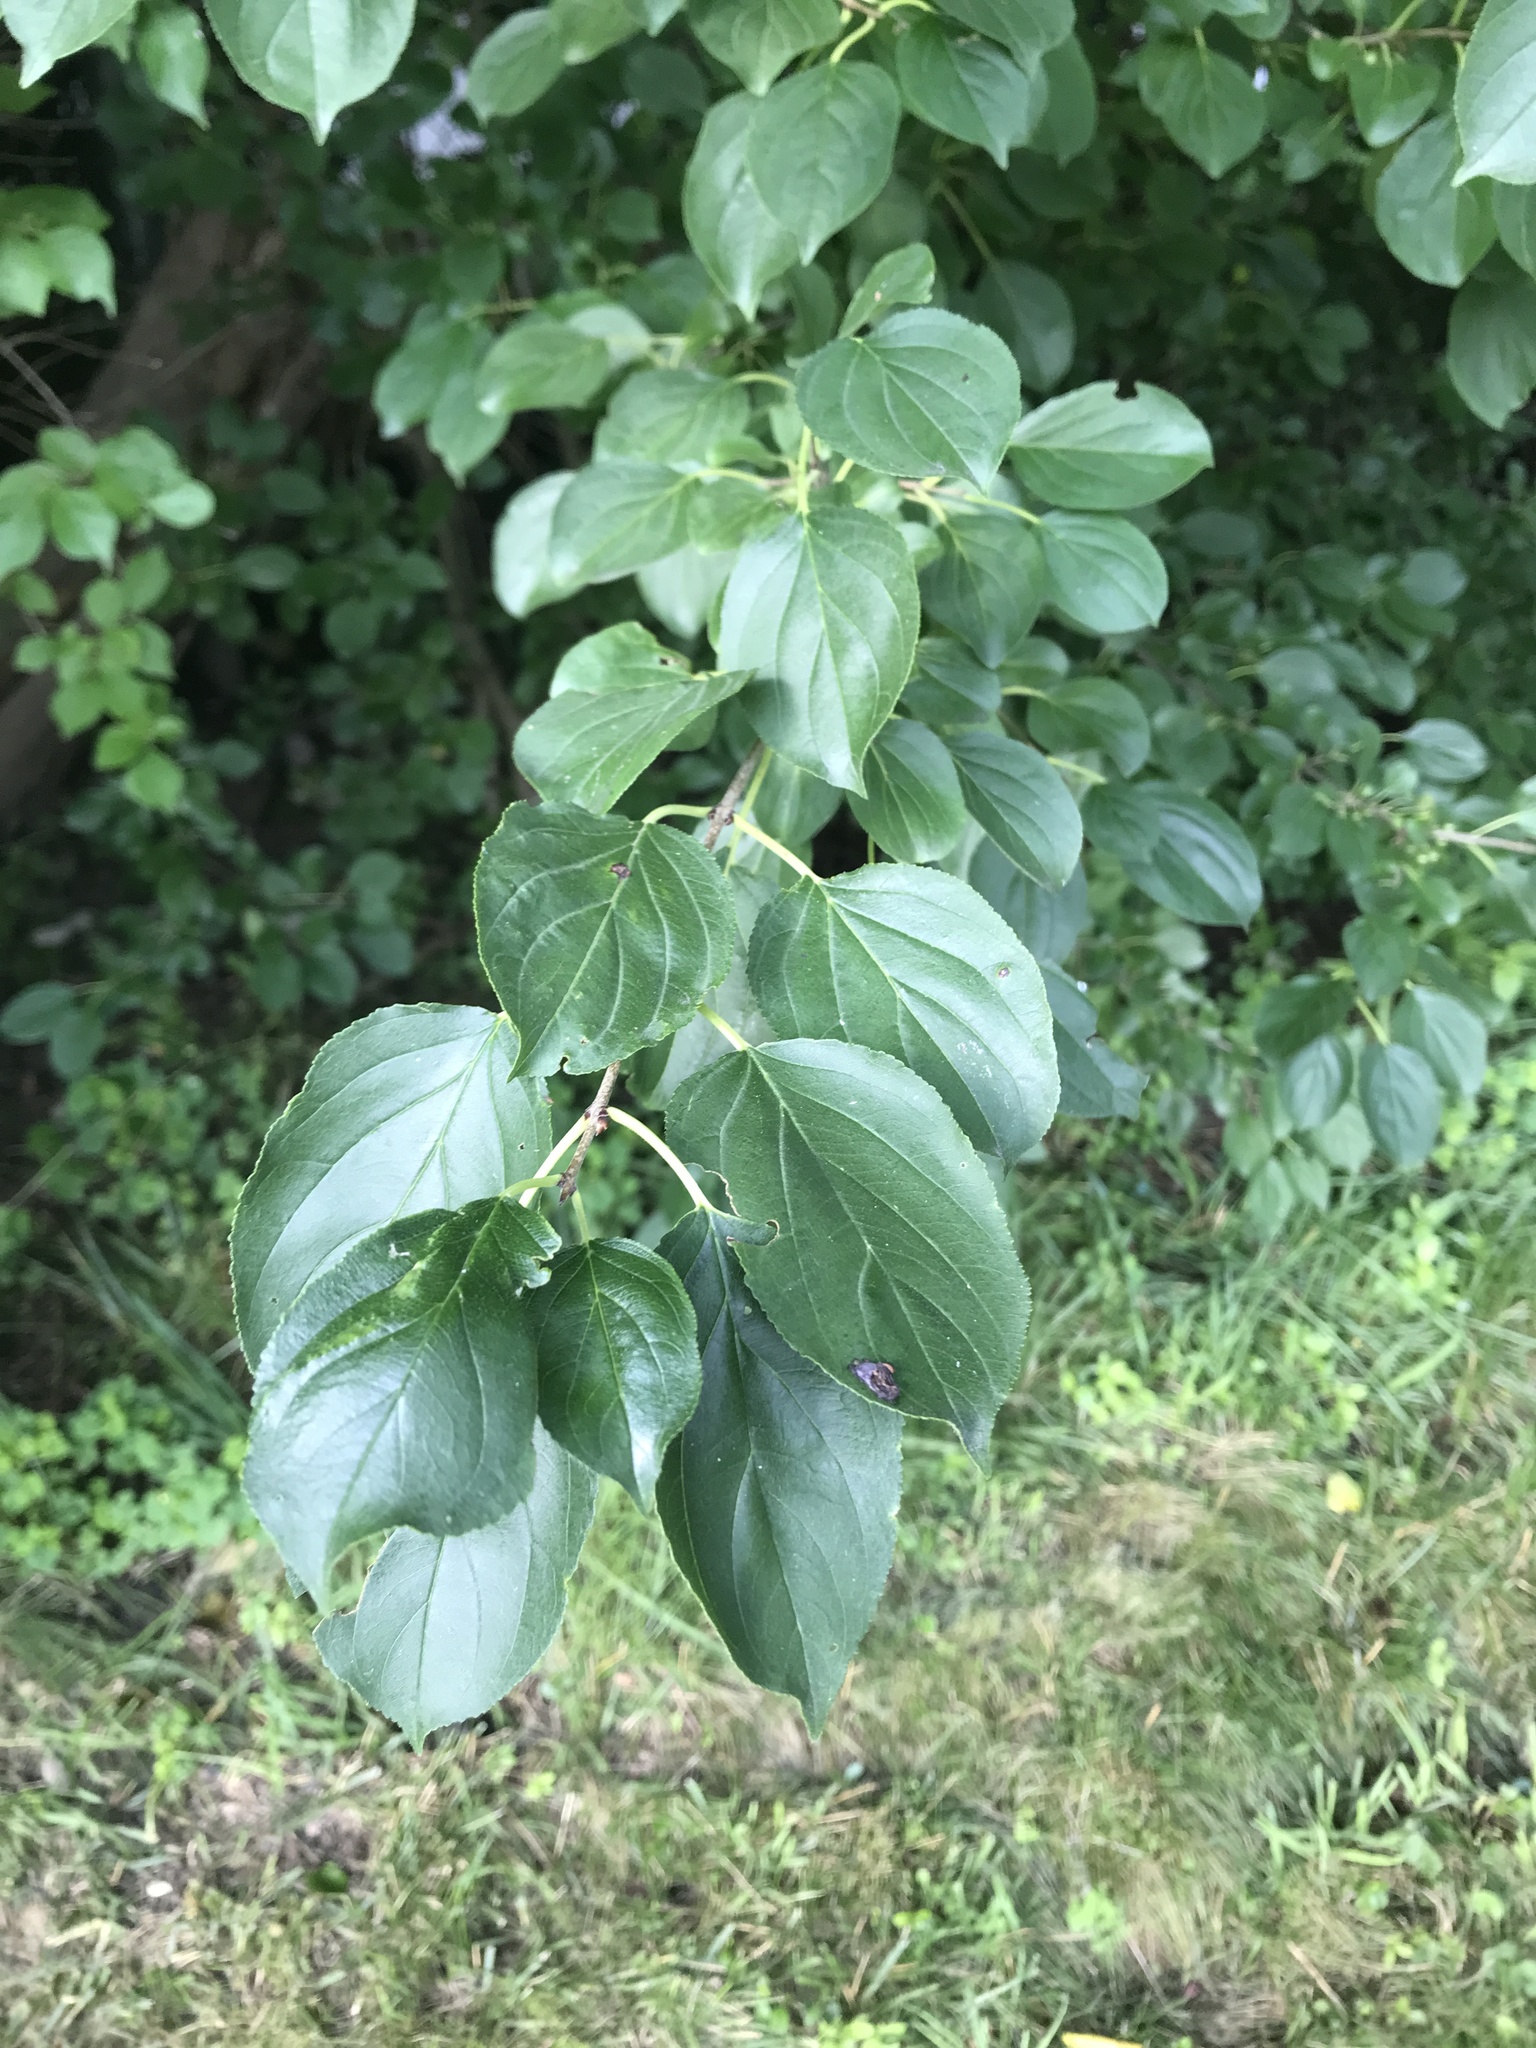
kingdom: Plantae
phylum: Tracheophyta
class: Magnoliopsida
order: Rosales
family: Rhamnaceae
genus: Rhamnus
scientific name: Rhamnus cathartica
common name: Common buckthorn
